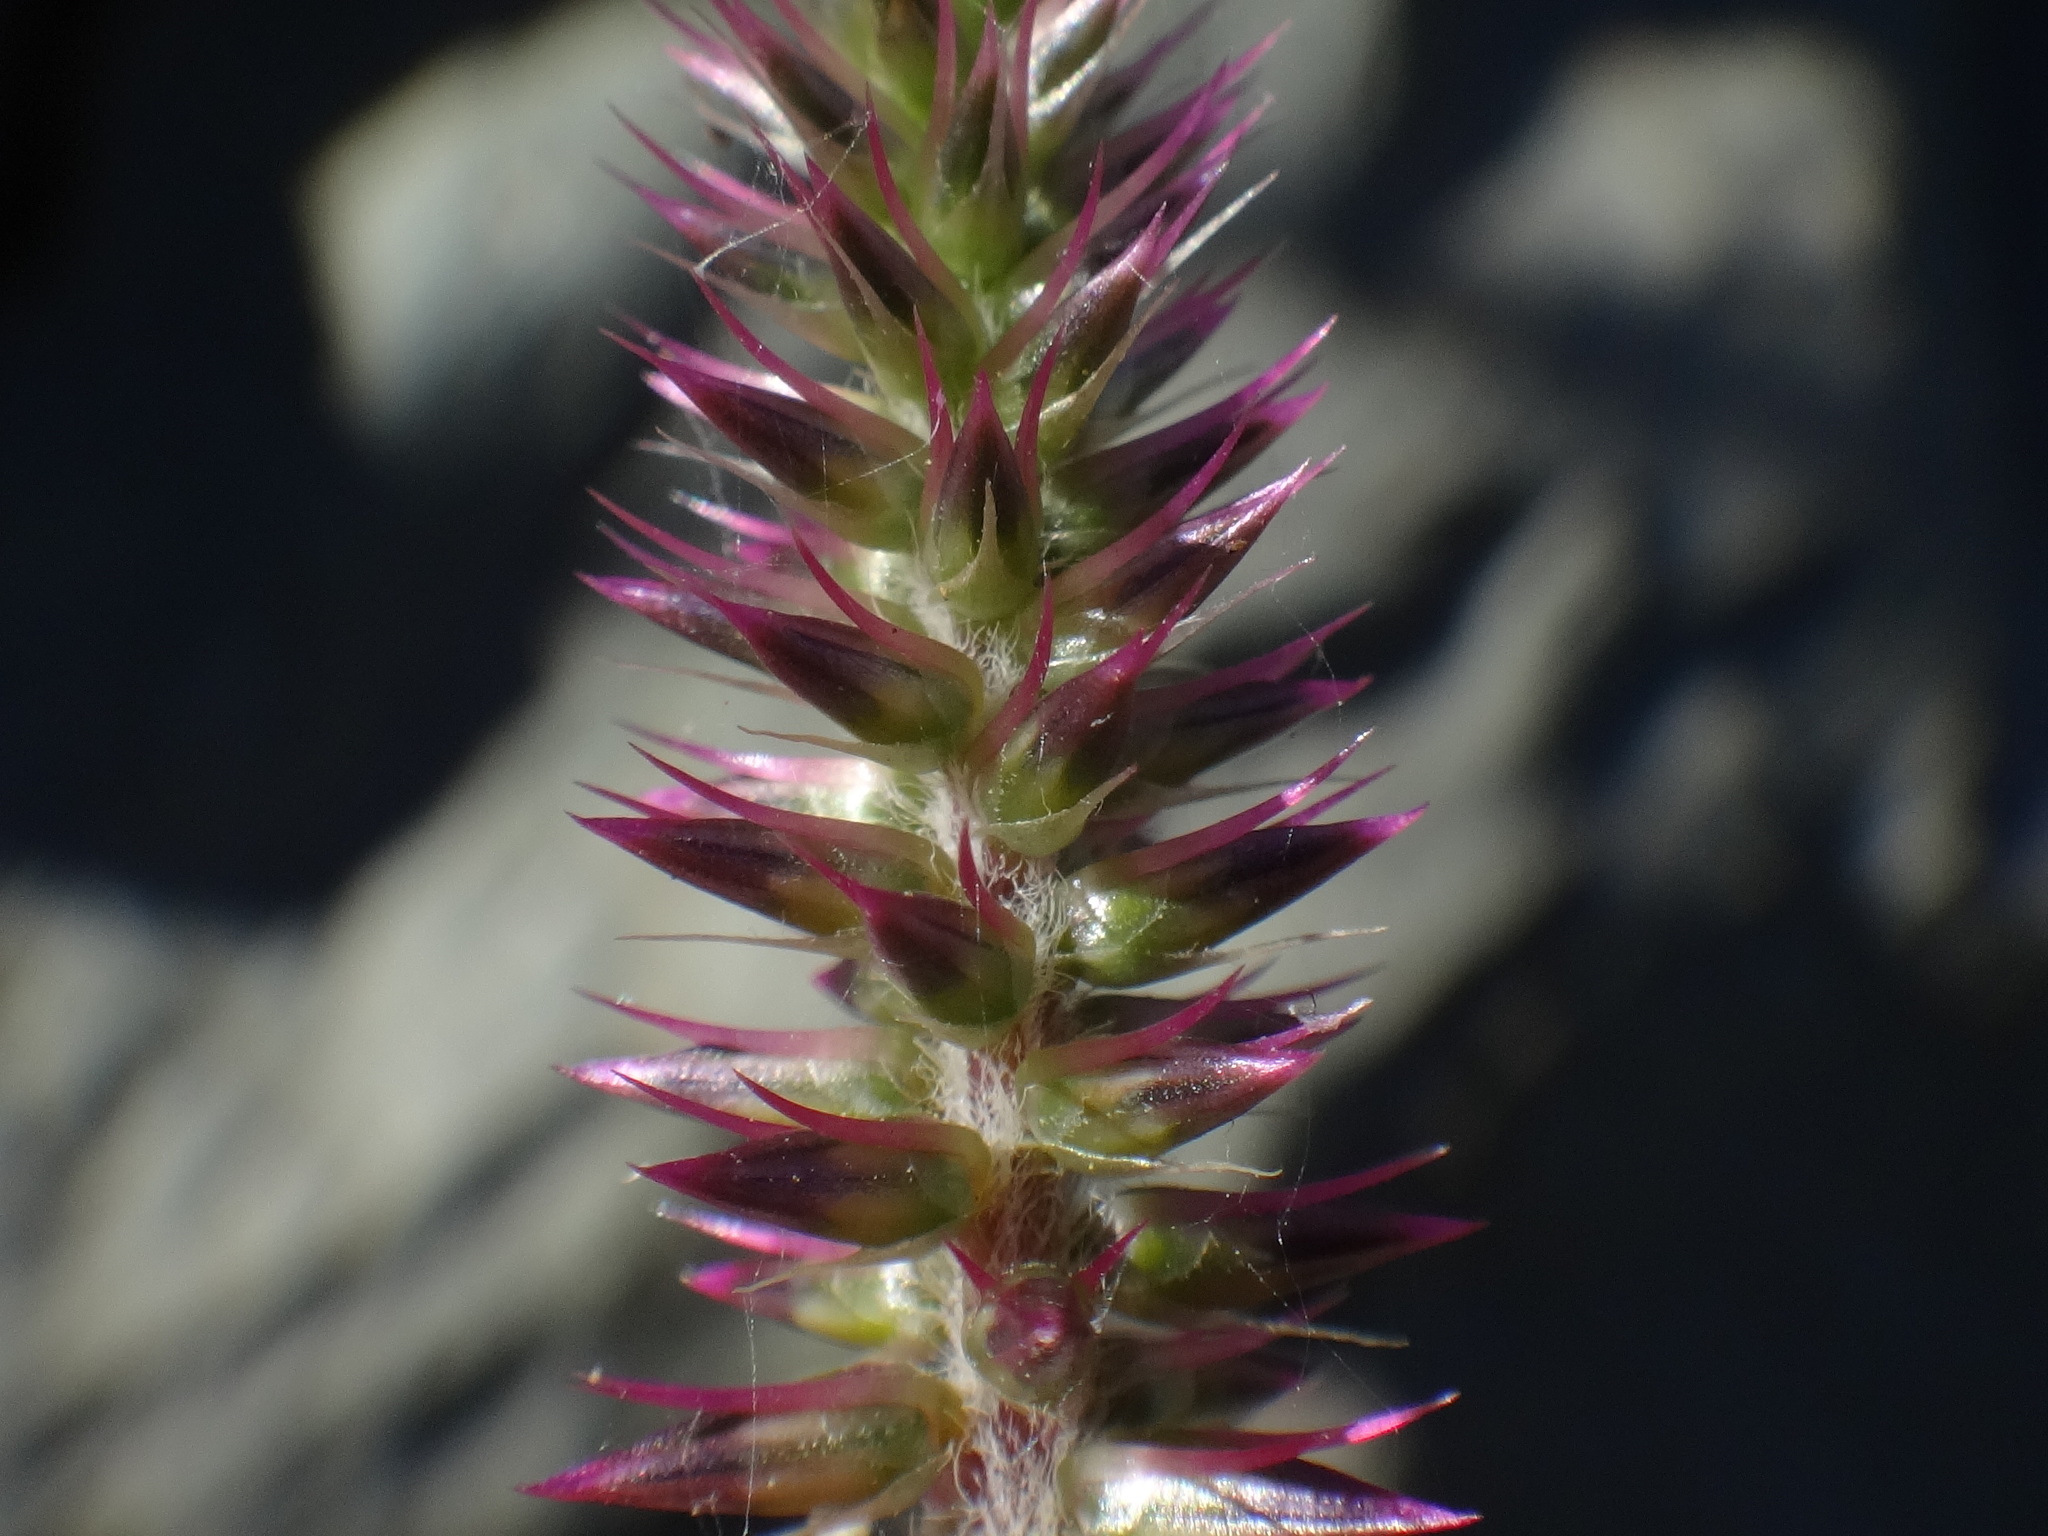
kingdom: Plantae
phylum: Tracheophyta
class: Magnoliopsida
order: Caryophyllales
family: Amaranthaceae
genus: Achyranthes
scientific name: Achyranthes aspera
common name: Devil's horsewhip
